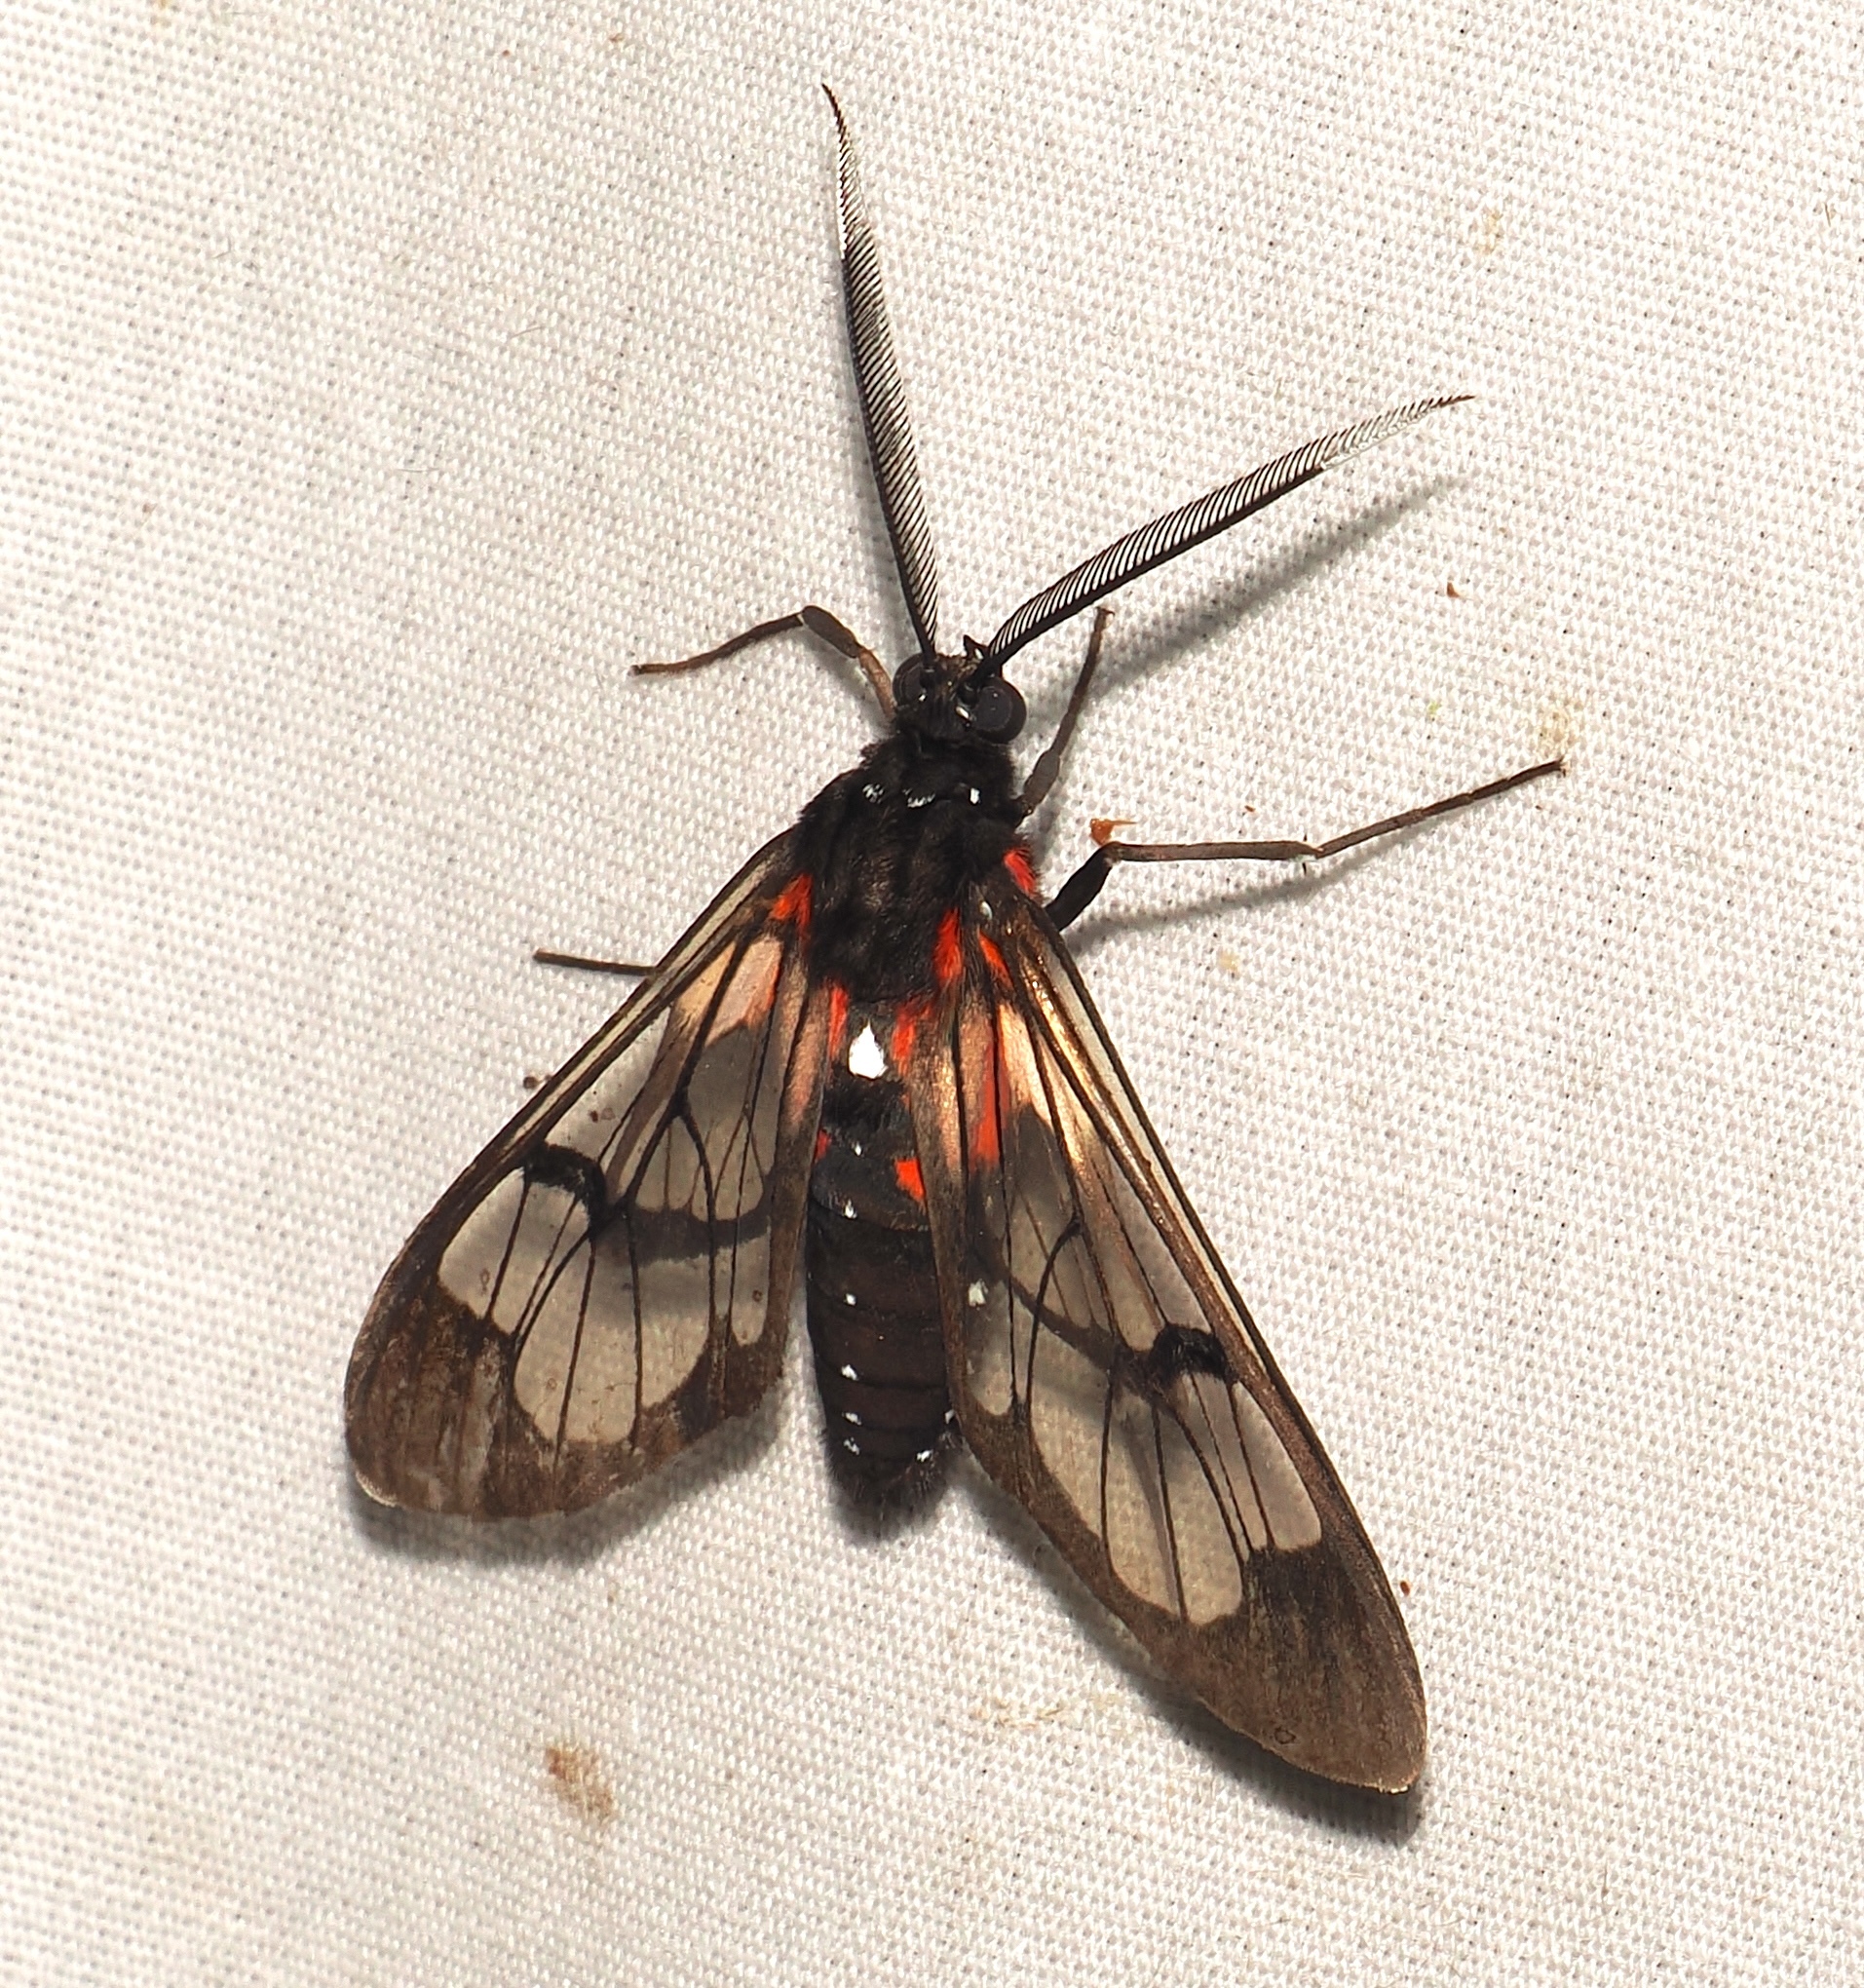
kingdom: Animalia
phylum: Arthropoda
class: Insecta
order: Lepidoptera
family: Erebidae
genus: Cosmosoma
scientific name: Cosmosoma Erruca cardinale
